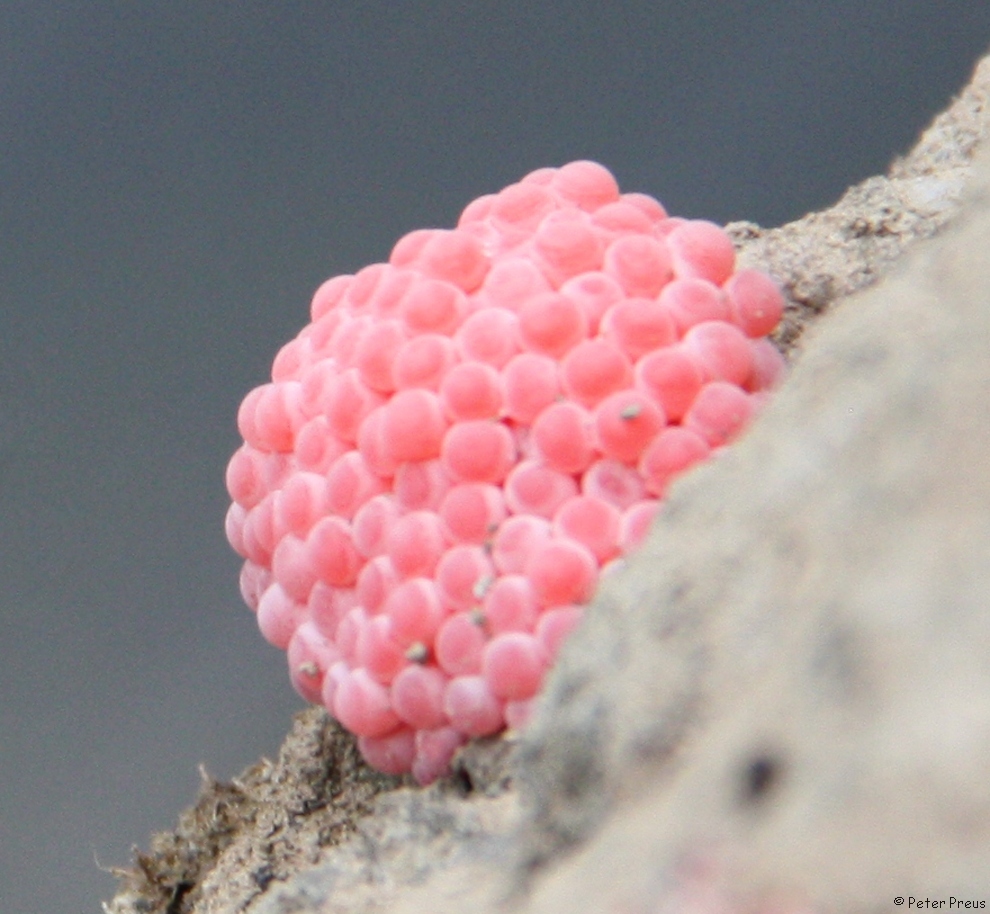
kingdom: Animalia
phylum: Mollusca
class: Gastropoda
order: Architaenioglossa
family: Ampullariidae
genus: Pomacea
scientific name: Pomacea canaliculata
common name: Channeled applesnail
